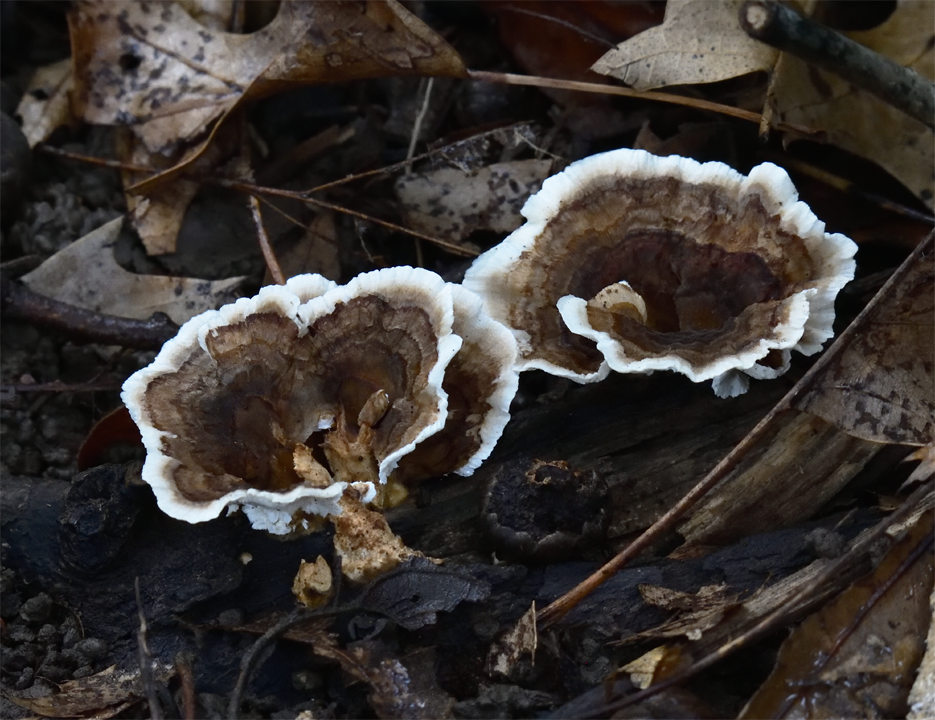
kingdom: Fungi
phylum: Basidiomycota
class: Agaricomycetes
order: Polyporales
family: Polyporaceae
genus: Trametes
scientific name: Trametes versicolor
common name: Turkeytail
